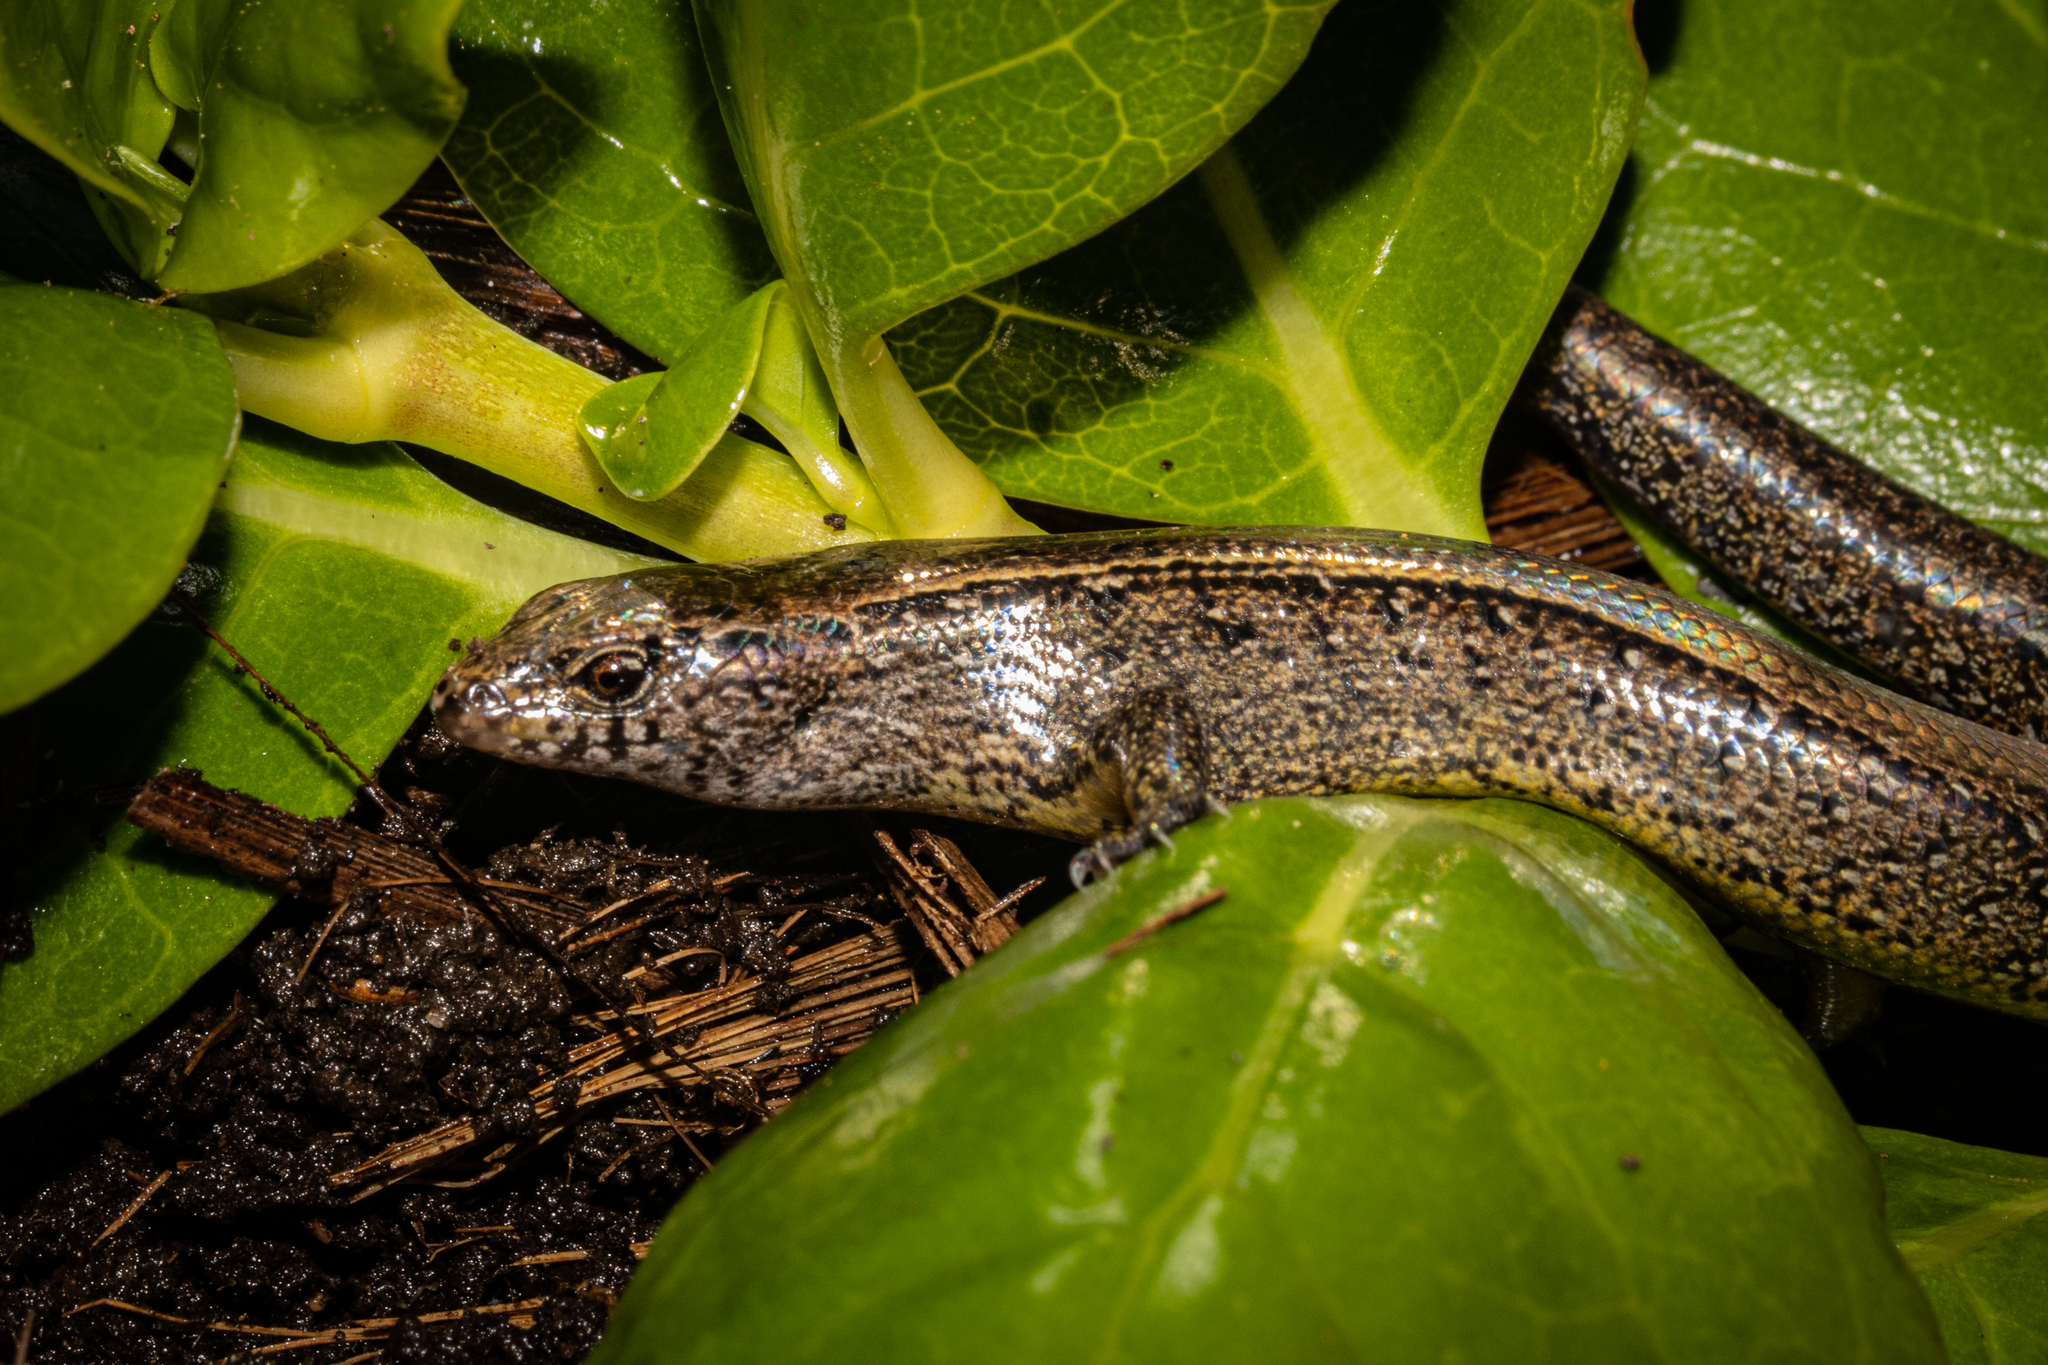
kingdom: Animalia
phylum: Chordata
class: Squamata
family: Scincidae
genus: Oligosoma
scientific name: Oligosoma aeneum
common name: Copper skink
